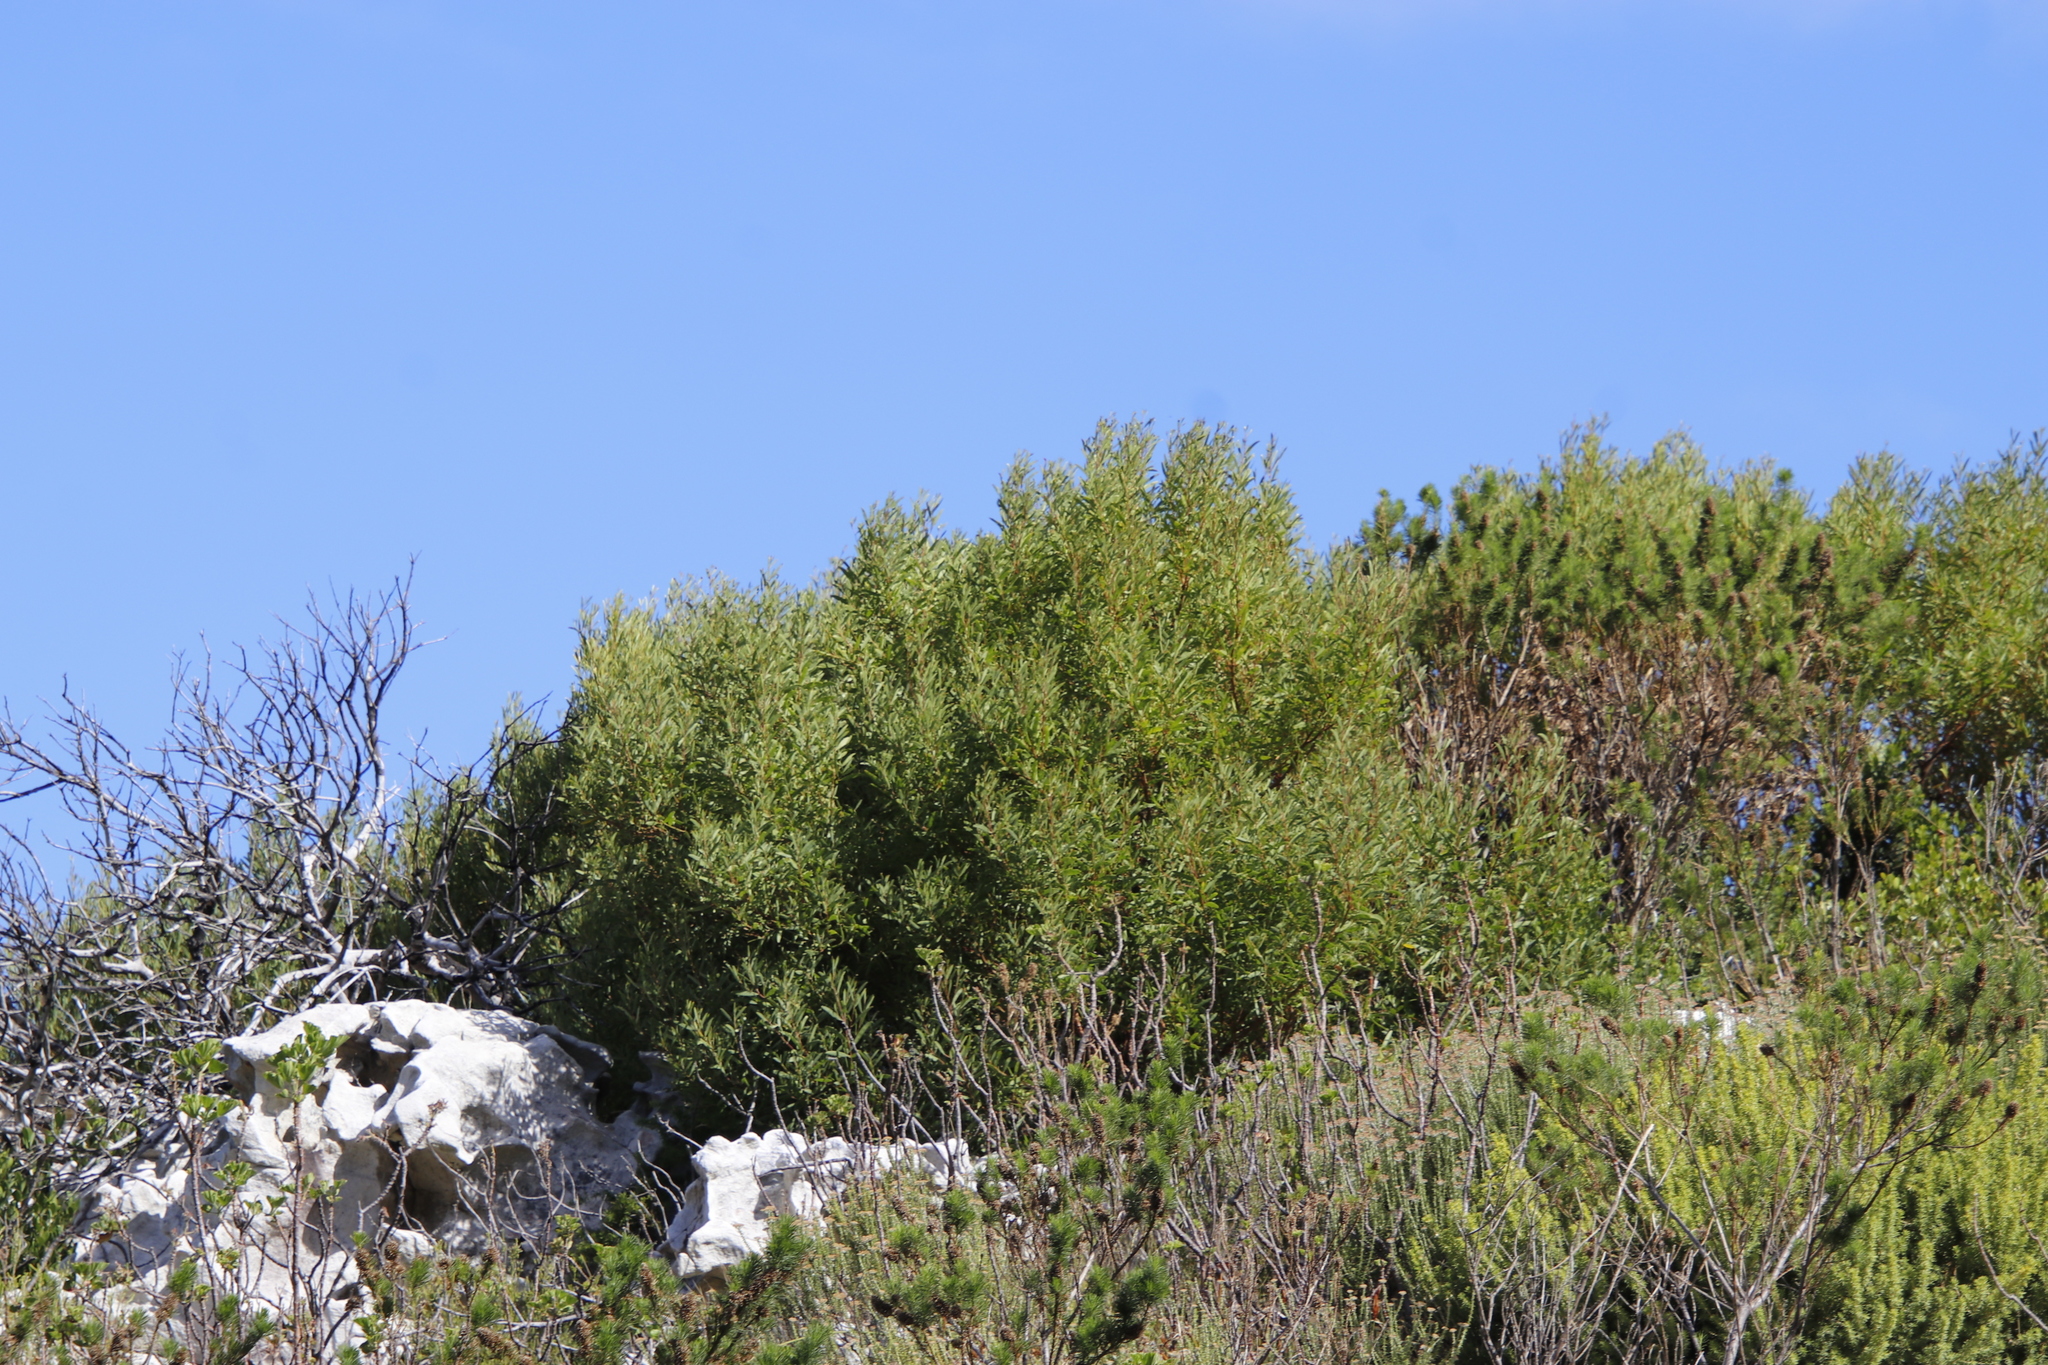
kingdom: Plantae
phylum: Tracheophyta
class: Magnoliopsida
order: Fabales
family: Fabaceae
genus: Acacia
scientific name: Acacia cyclops
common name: Coastal wattle
